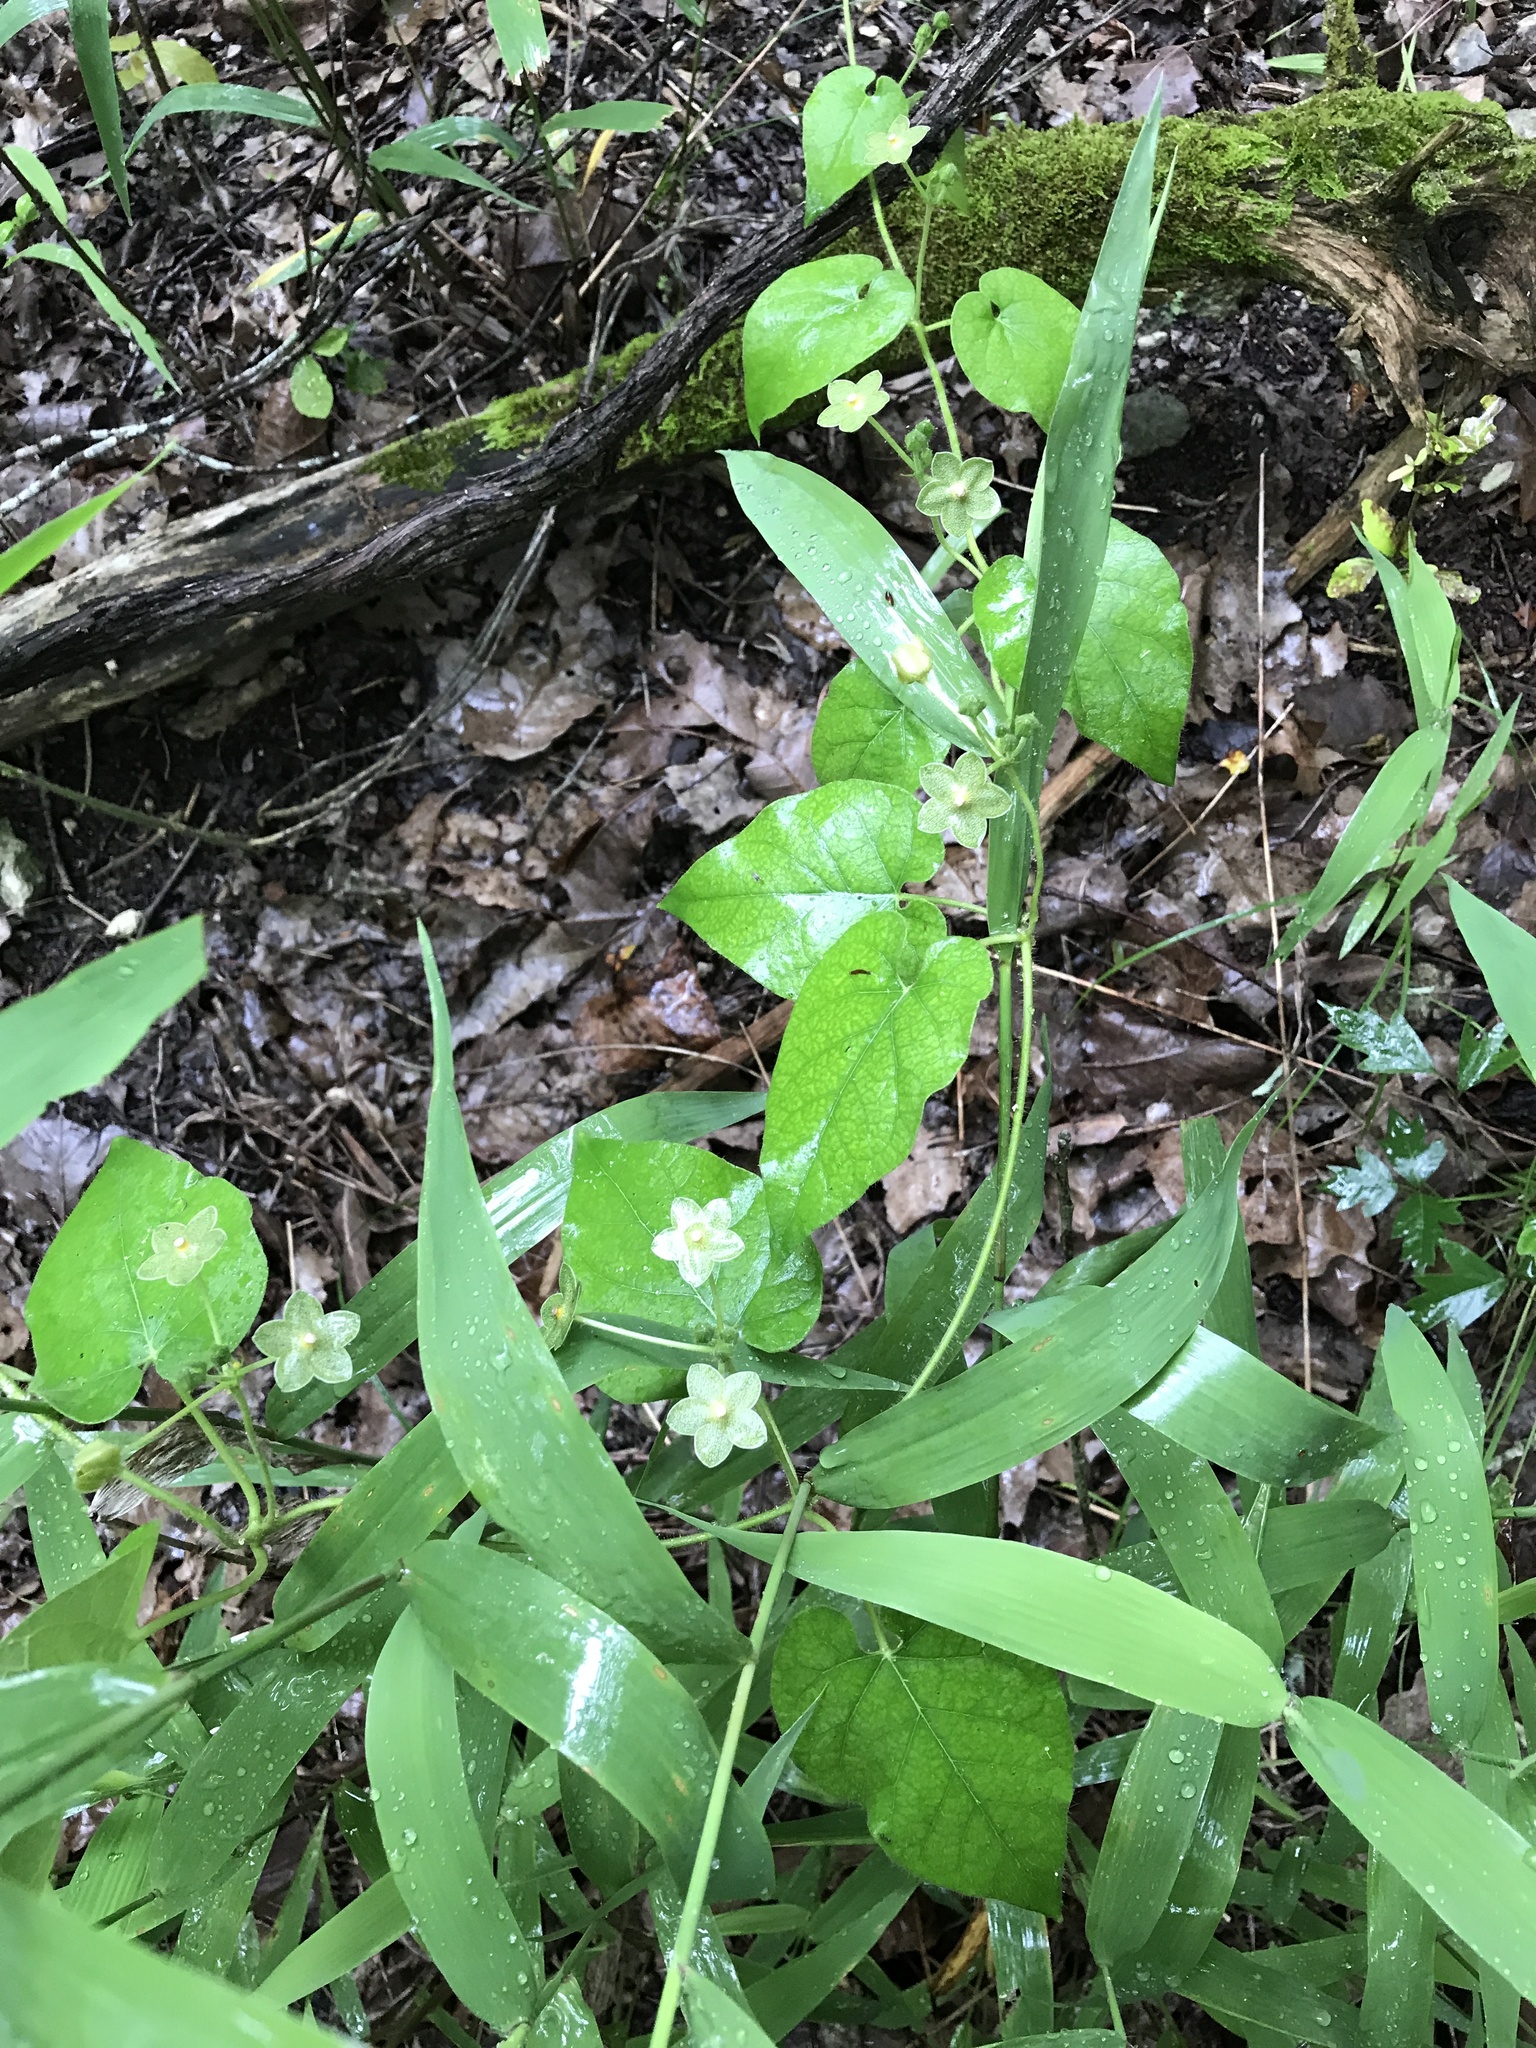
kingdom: Plantae
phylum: Tracheophyta
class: Magnoliopsida
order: Gentianales
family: Apocynaceae
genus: Dictyanthus
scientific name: Dictyanthus reticulatus
